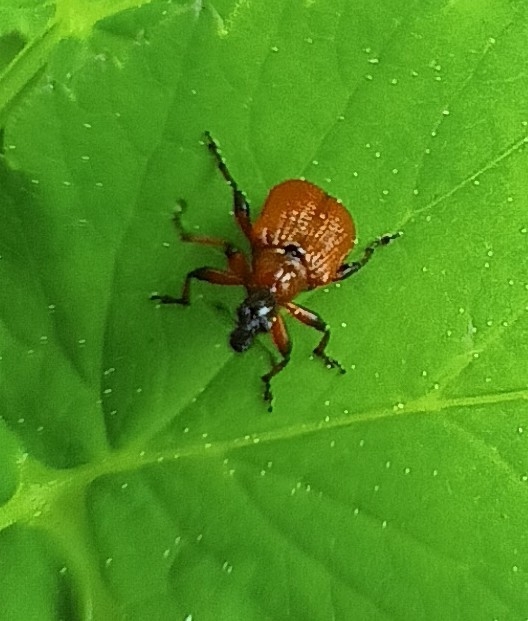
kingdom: Animalia
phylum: Arthropoda
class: Insecta
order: Coleoptera
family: Attelabidae
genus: Apoderus
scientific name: Apoderus coryli
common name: Hazel leaf roller
